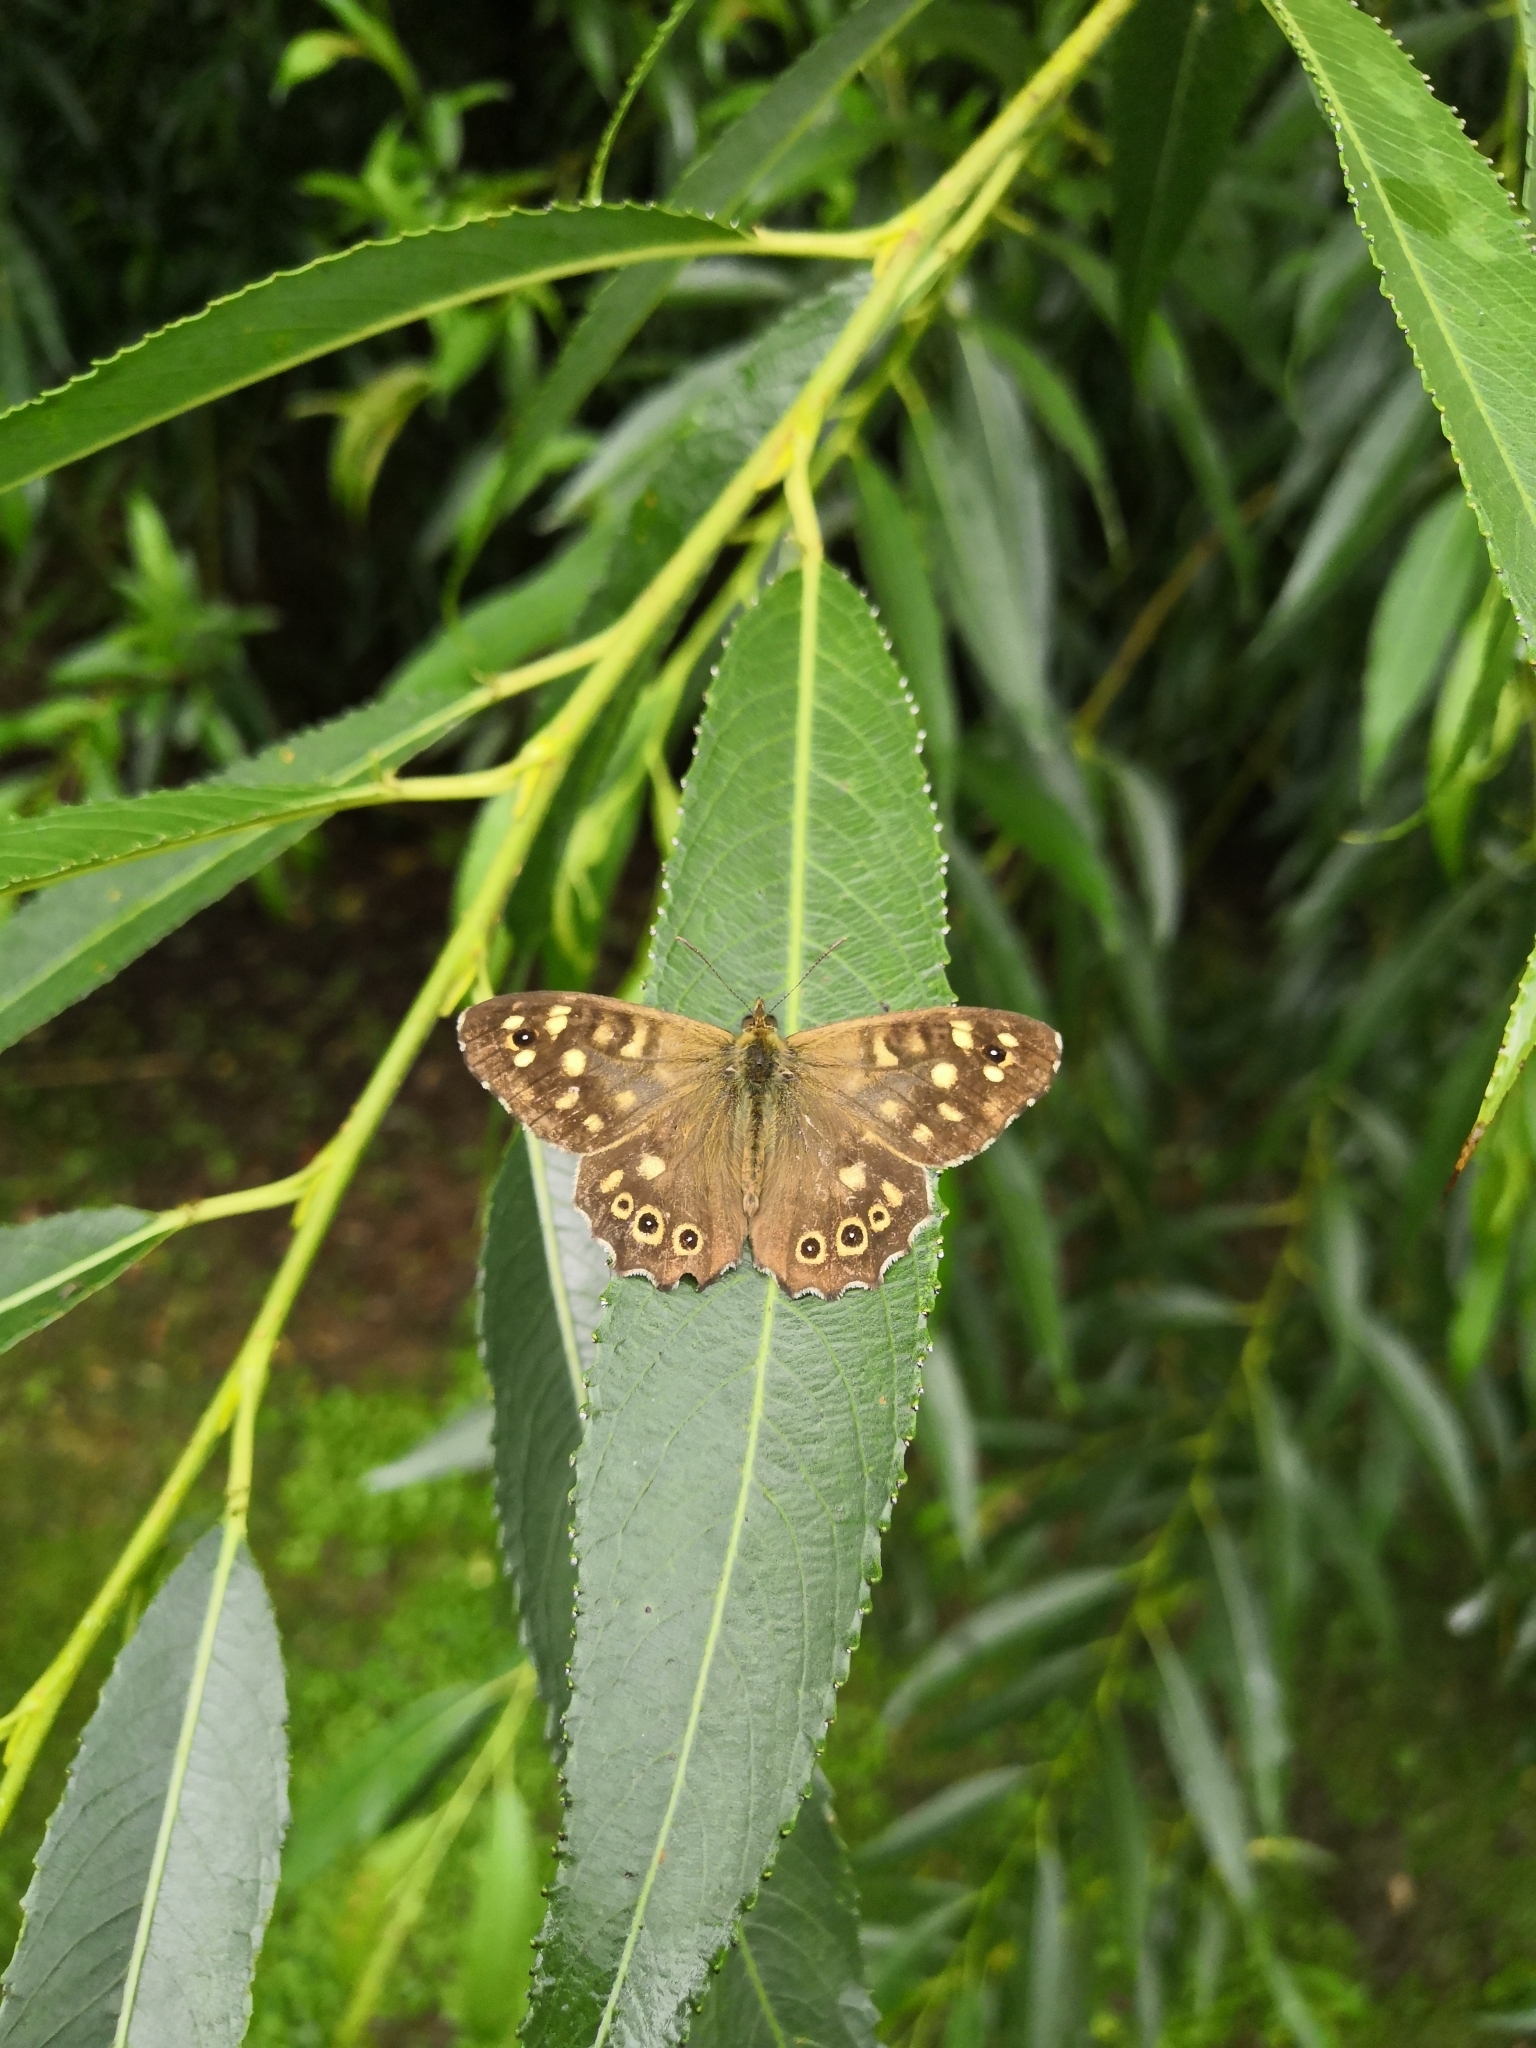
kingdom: Animalia
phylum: Arthropoda
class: Insecta
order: Lepidoptera
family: Nymphalidae
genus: Pararge
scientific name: Pararge aegeria
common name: Speckled wood
